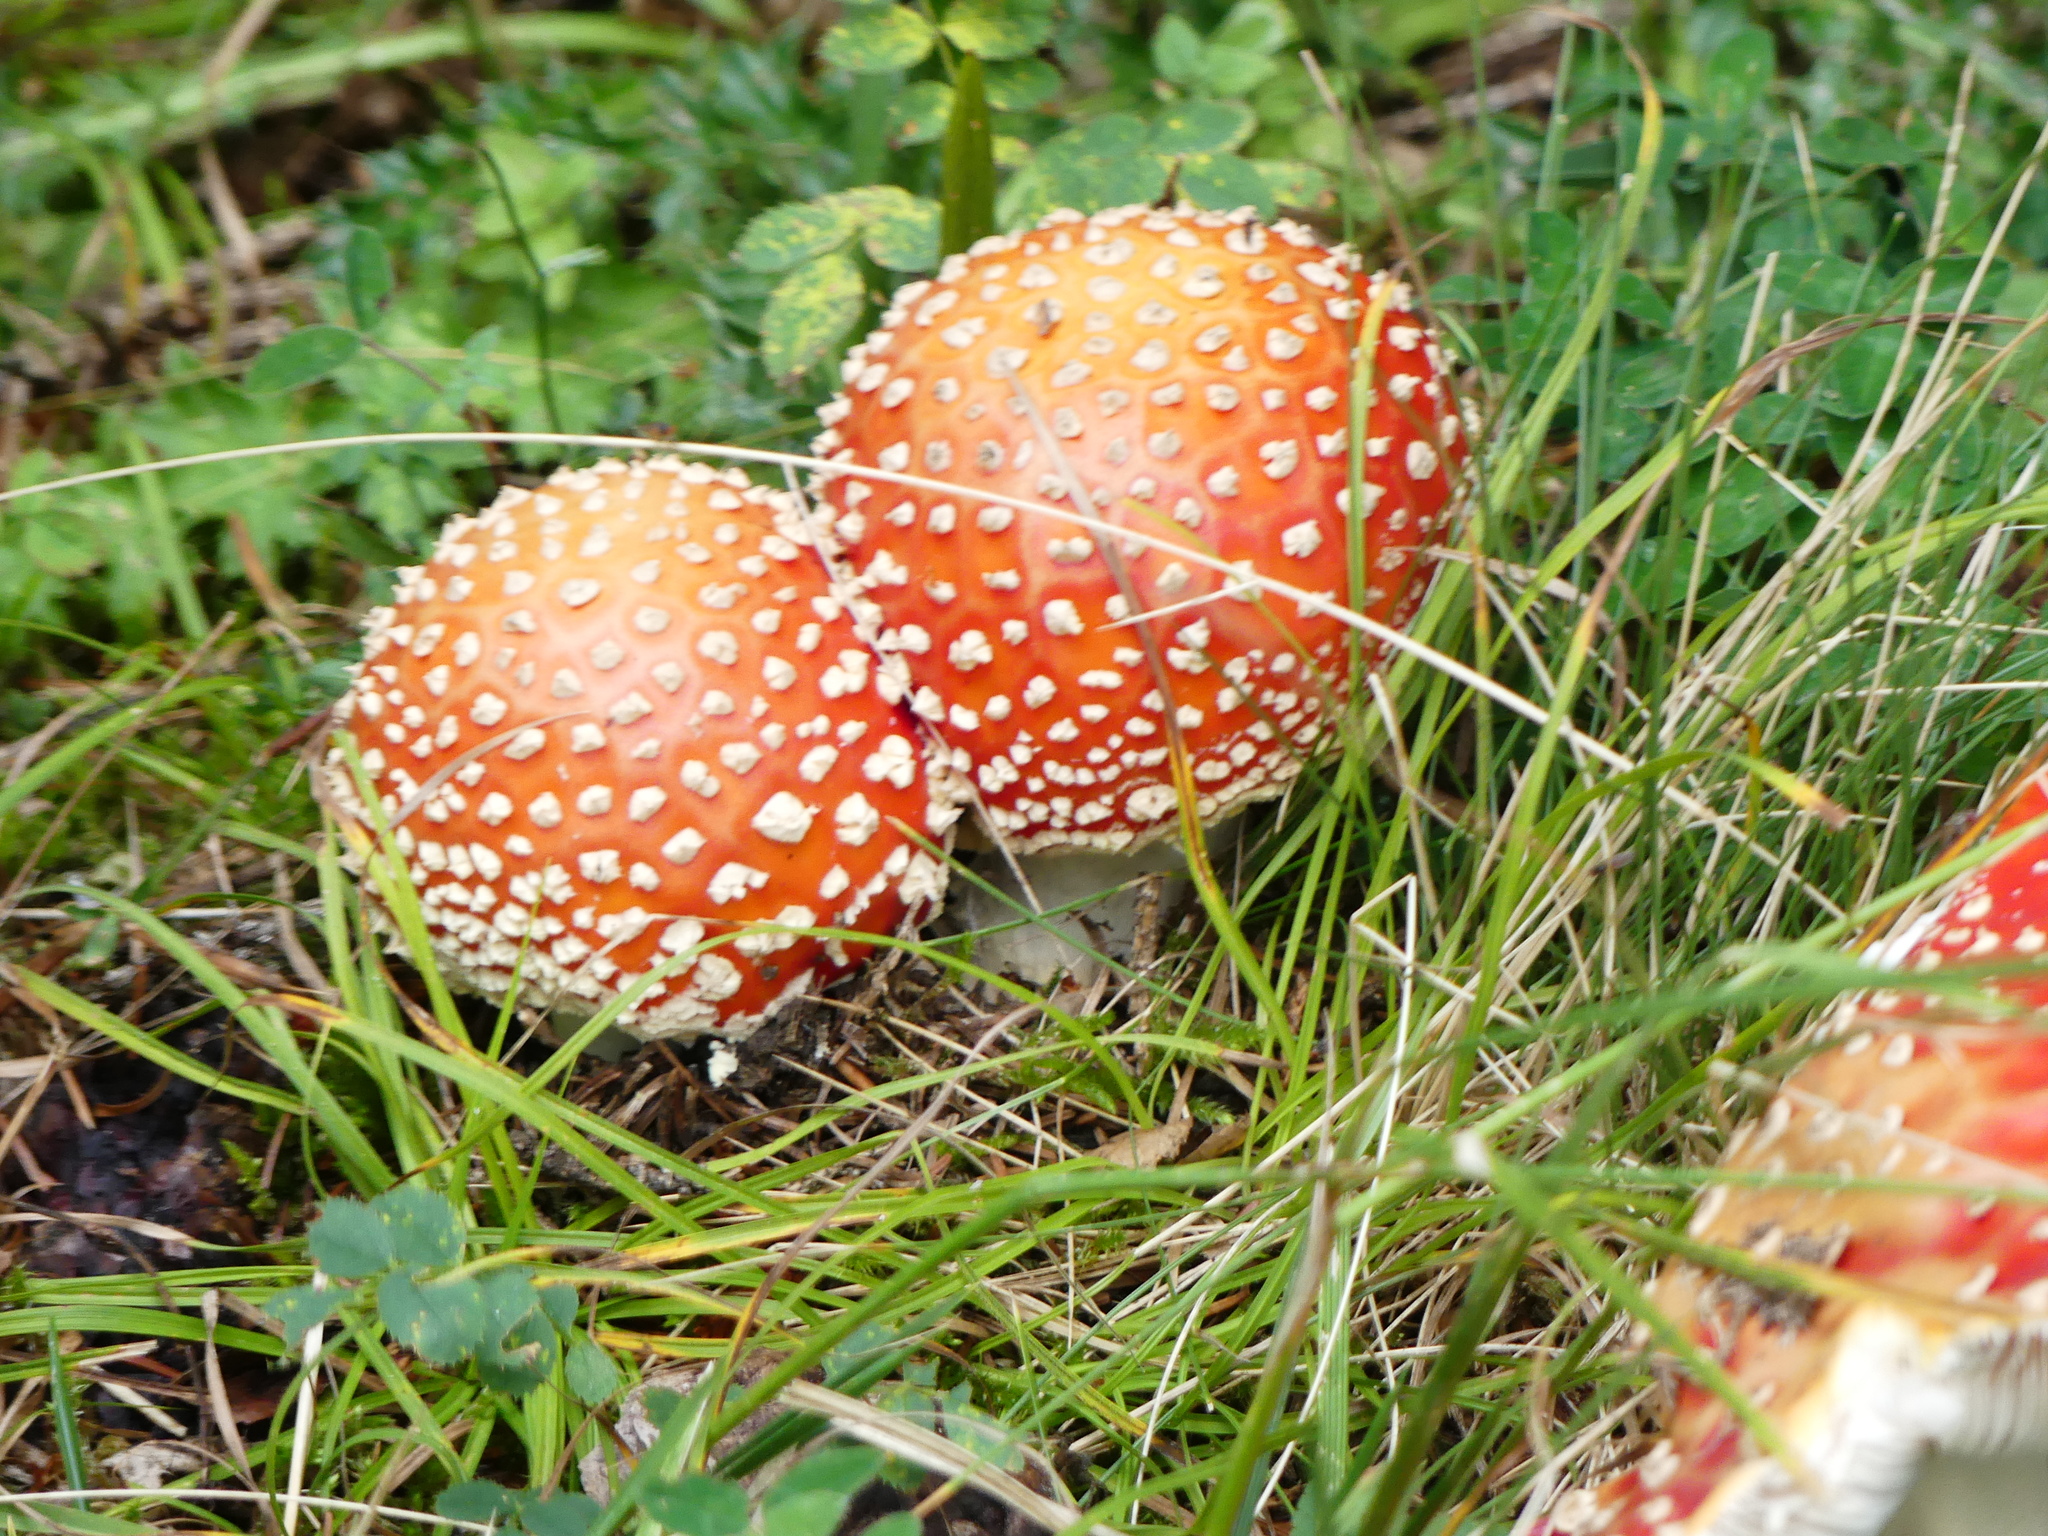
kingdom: Fungi
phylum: Basidiomycota
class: Agaricomycetes
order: Agaricales
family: Amanitaceae
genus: Amanita
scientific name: Amanita muscaria
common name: Fly agaric
